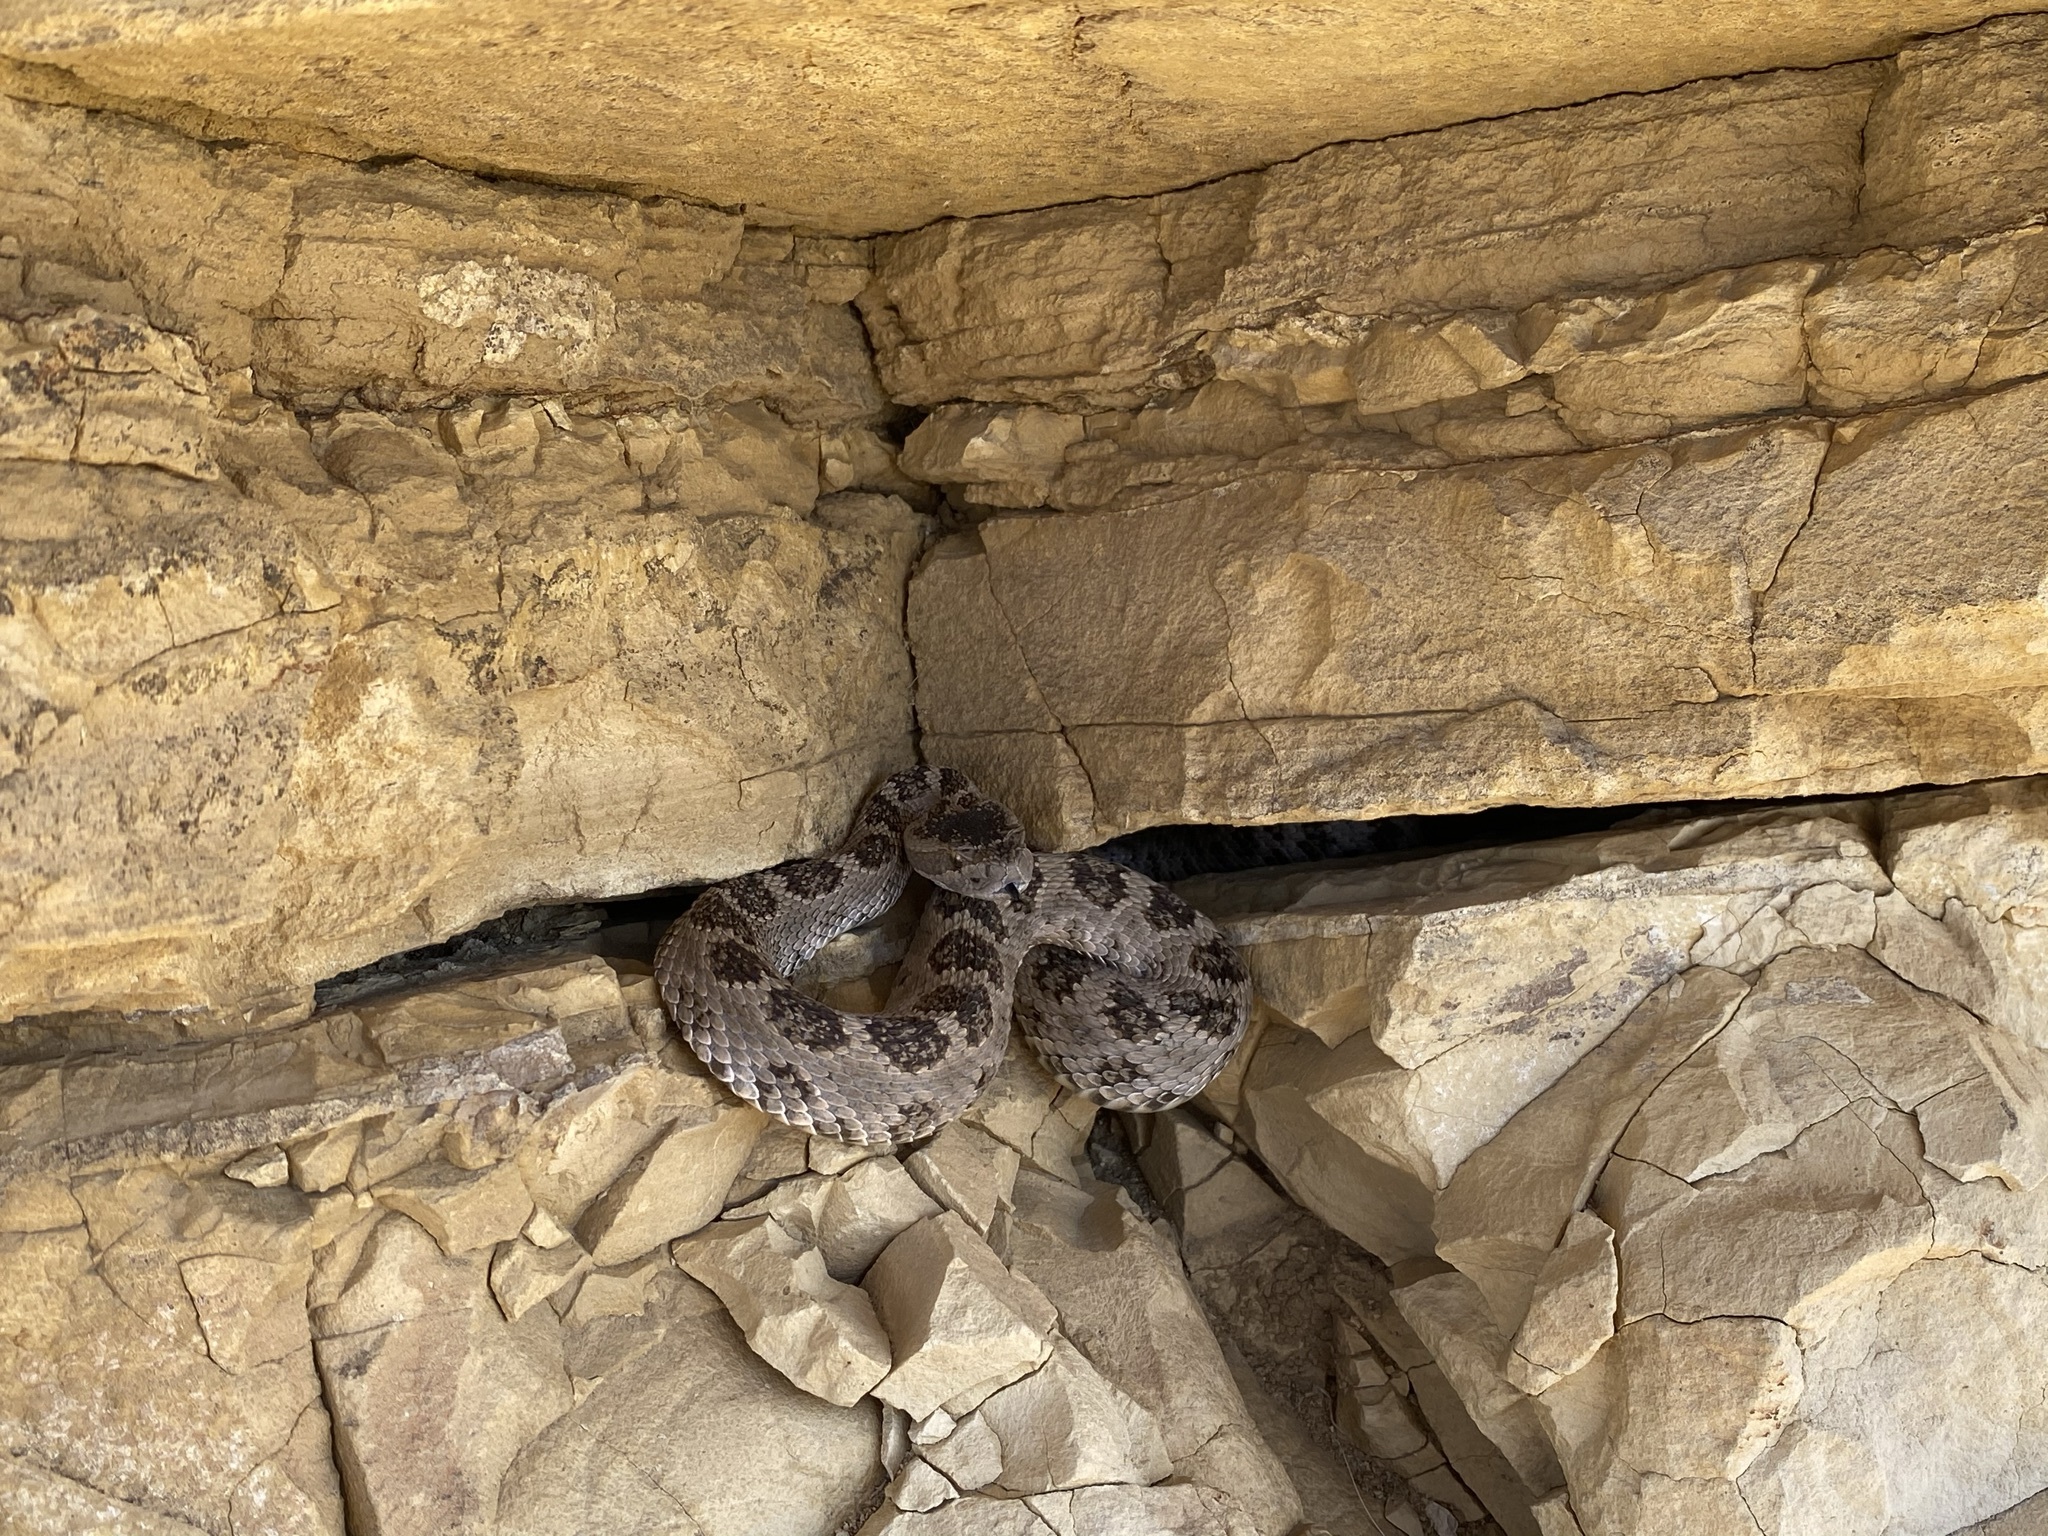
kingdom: Animalia
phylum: Chordata
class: Squamata
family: Viperidae
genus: Crotalus
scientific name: Crotalus oreganus
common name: Abyssus
